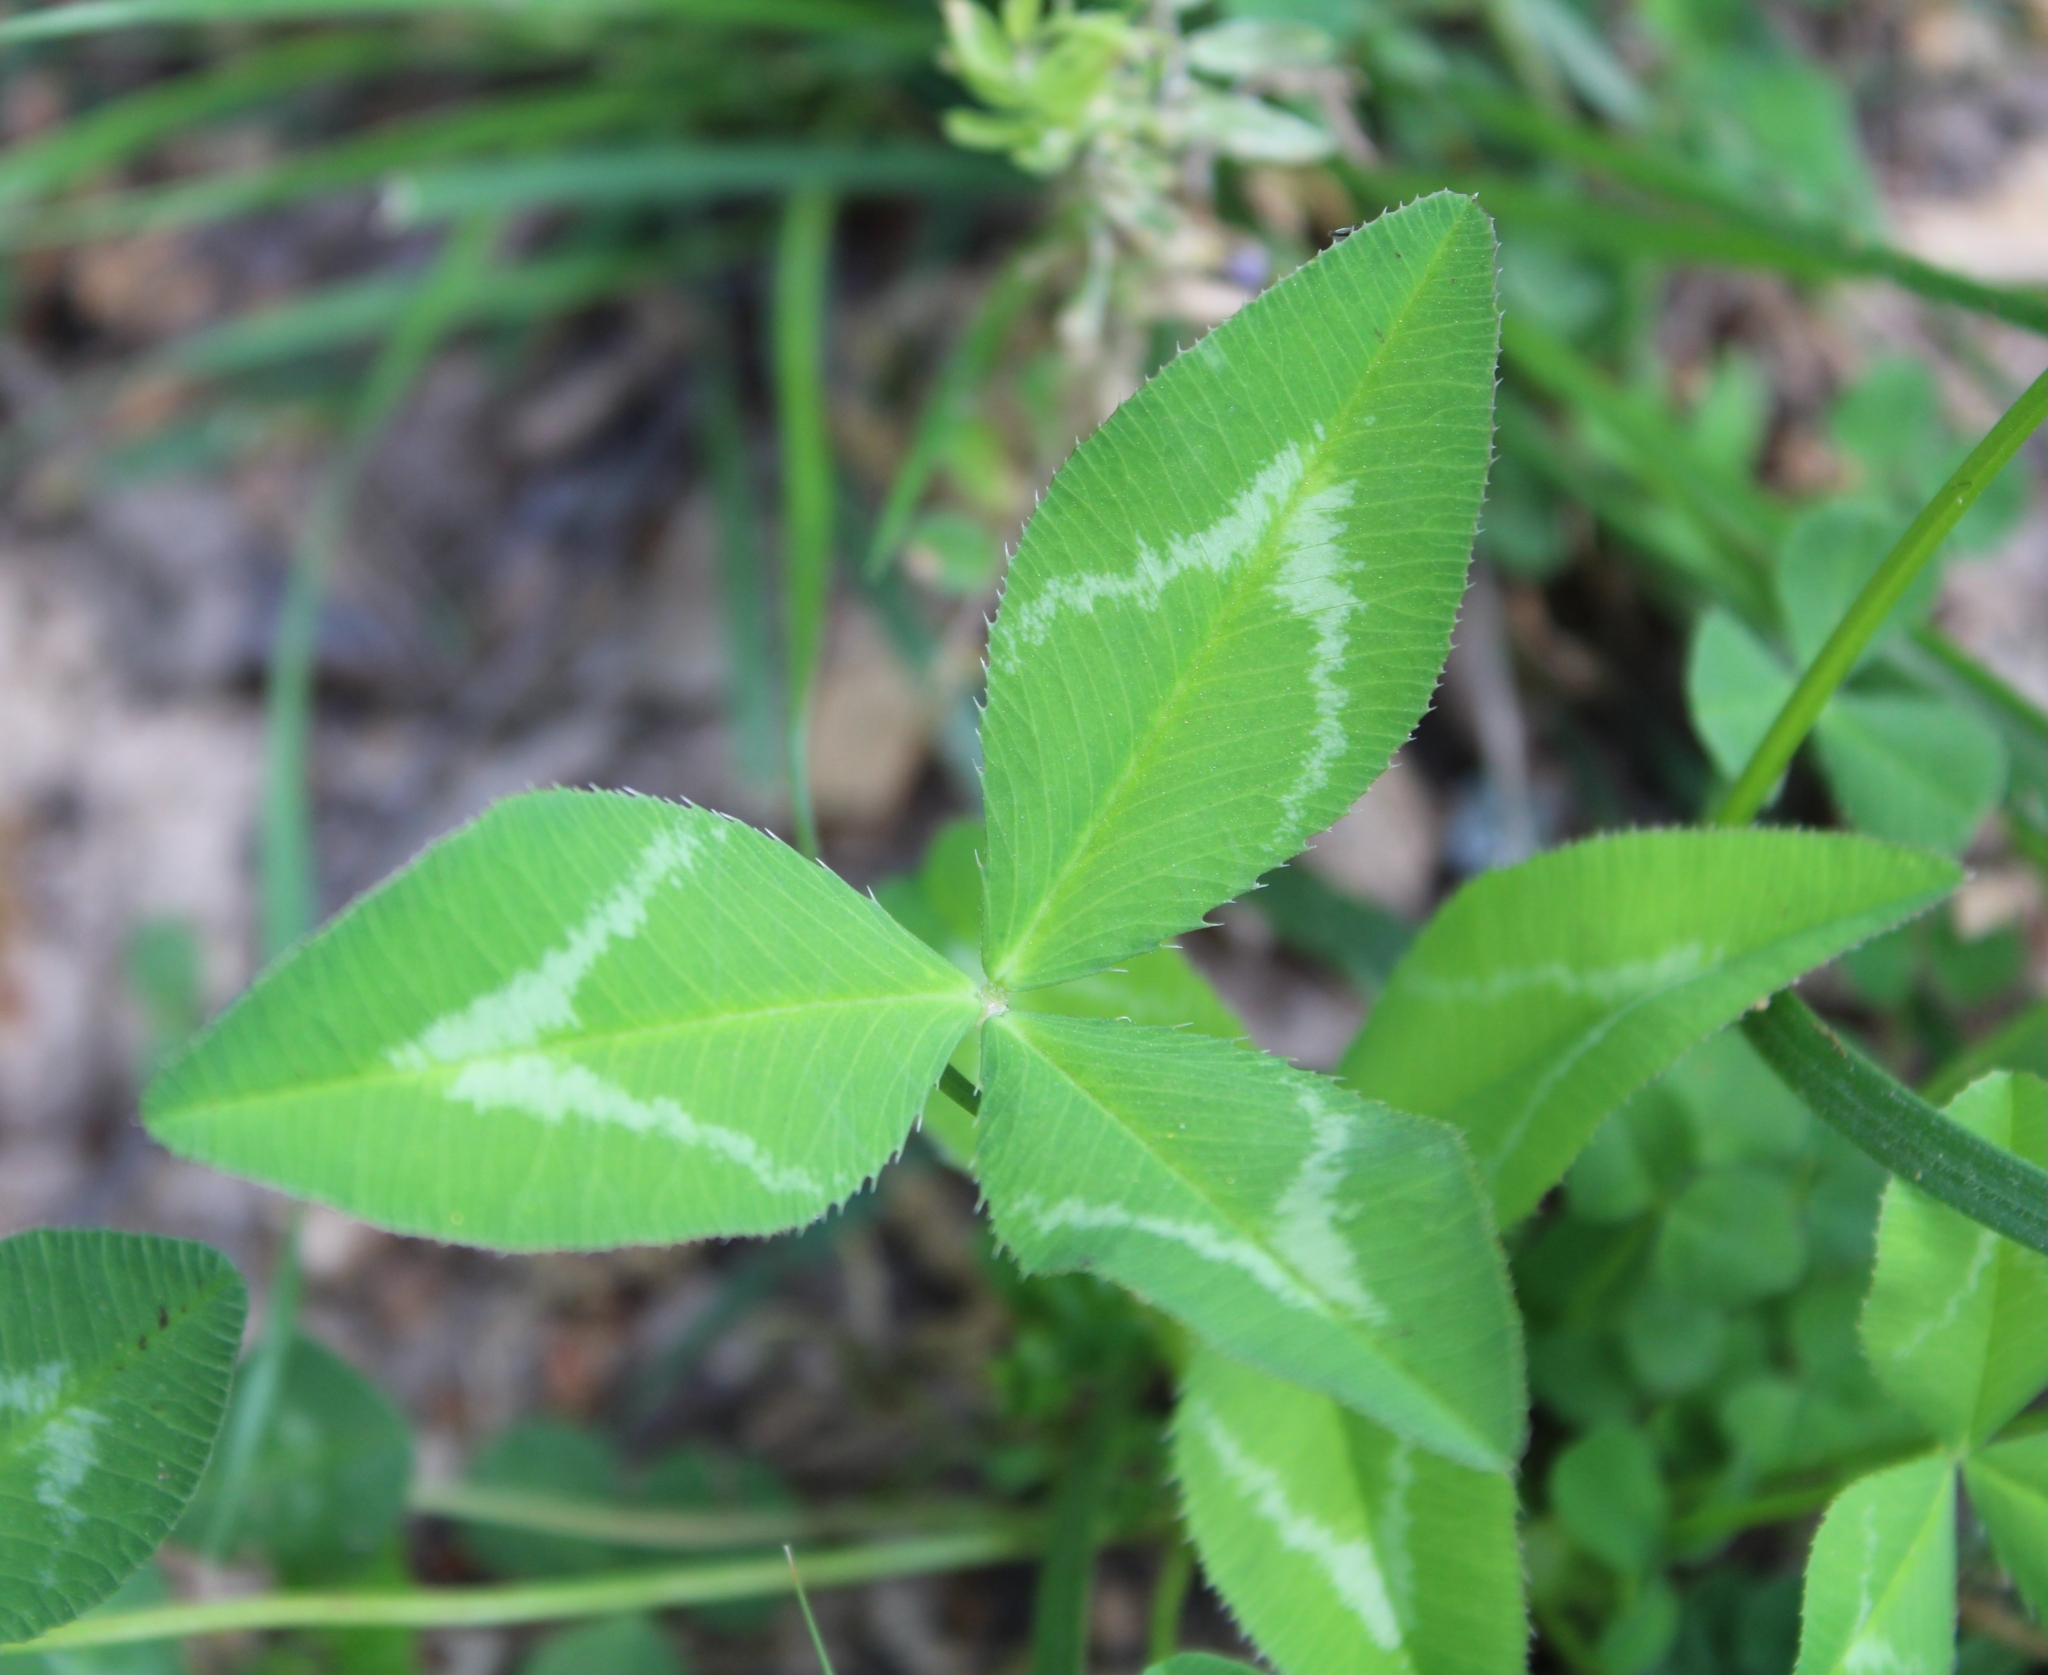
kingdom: Plantae
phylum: Tracheophyta
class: Magnoliopsida
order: Fabales
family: Fabaceae
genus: Trifolium
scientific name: Trifolium vesiculosum
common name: Arrowleaf clover
